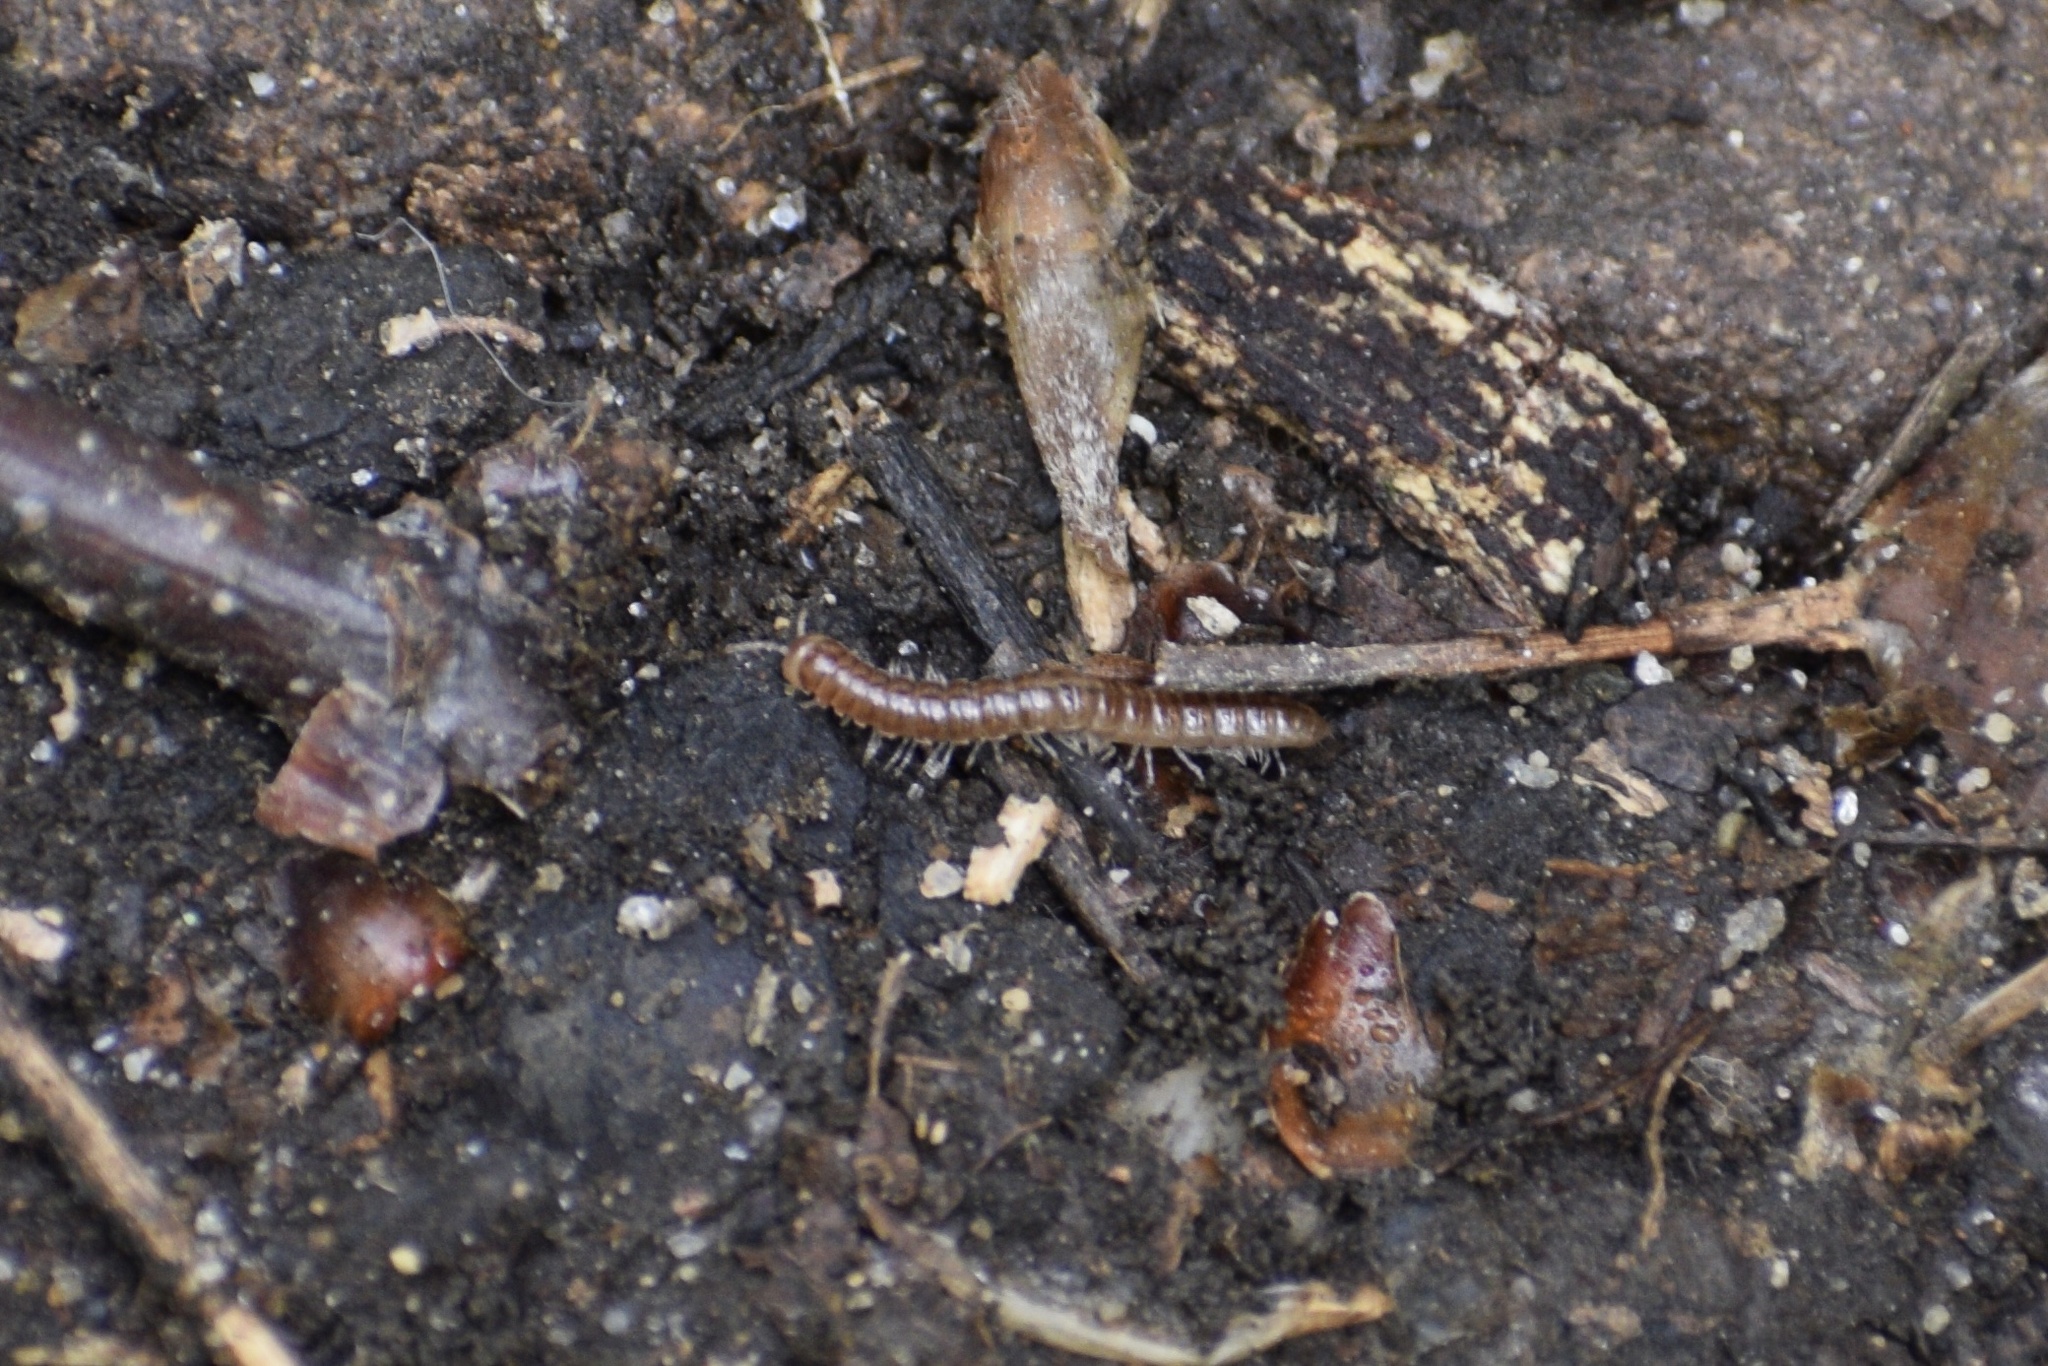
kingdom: Animalia
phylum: Arthropoda
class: Diplopoda
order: Polydesmida
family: Paradoxosomatidae
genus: Oxidus
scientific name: Oxidus gracilis
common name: Greenhouse millipede
